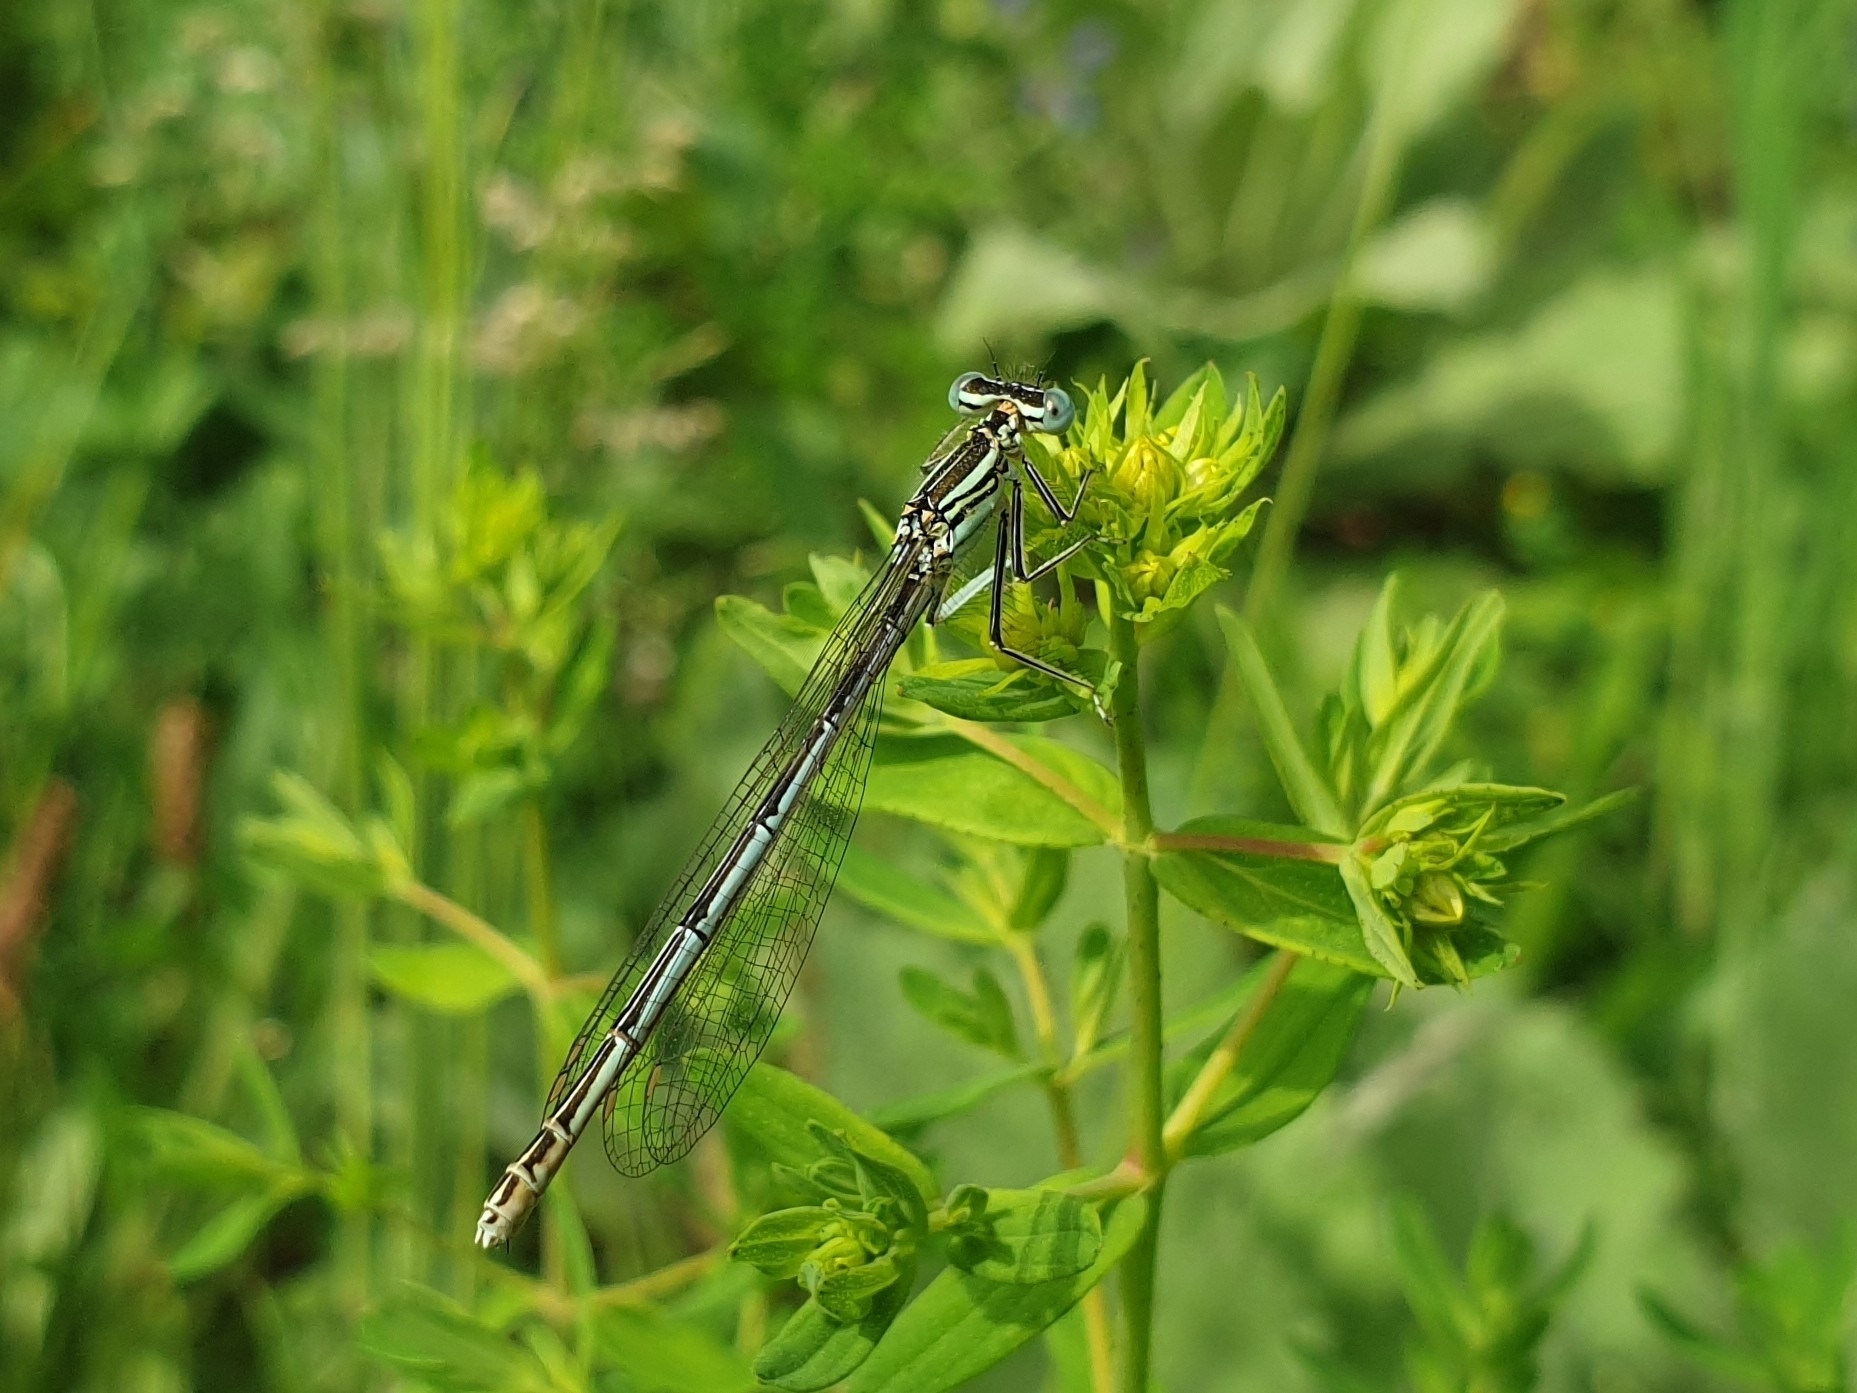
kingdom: Animalia
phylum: Arthropoda
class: Insecta
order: Odonata
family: Platycnemididae
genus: Platycnemis
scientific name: Platycnemis pennipes
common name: White-legged damselfly
